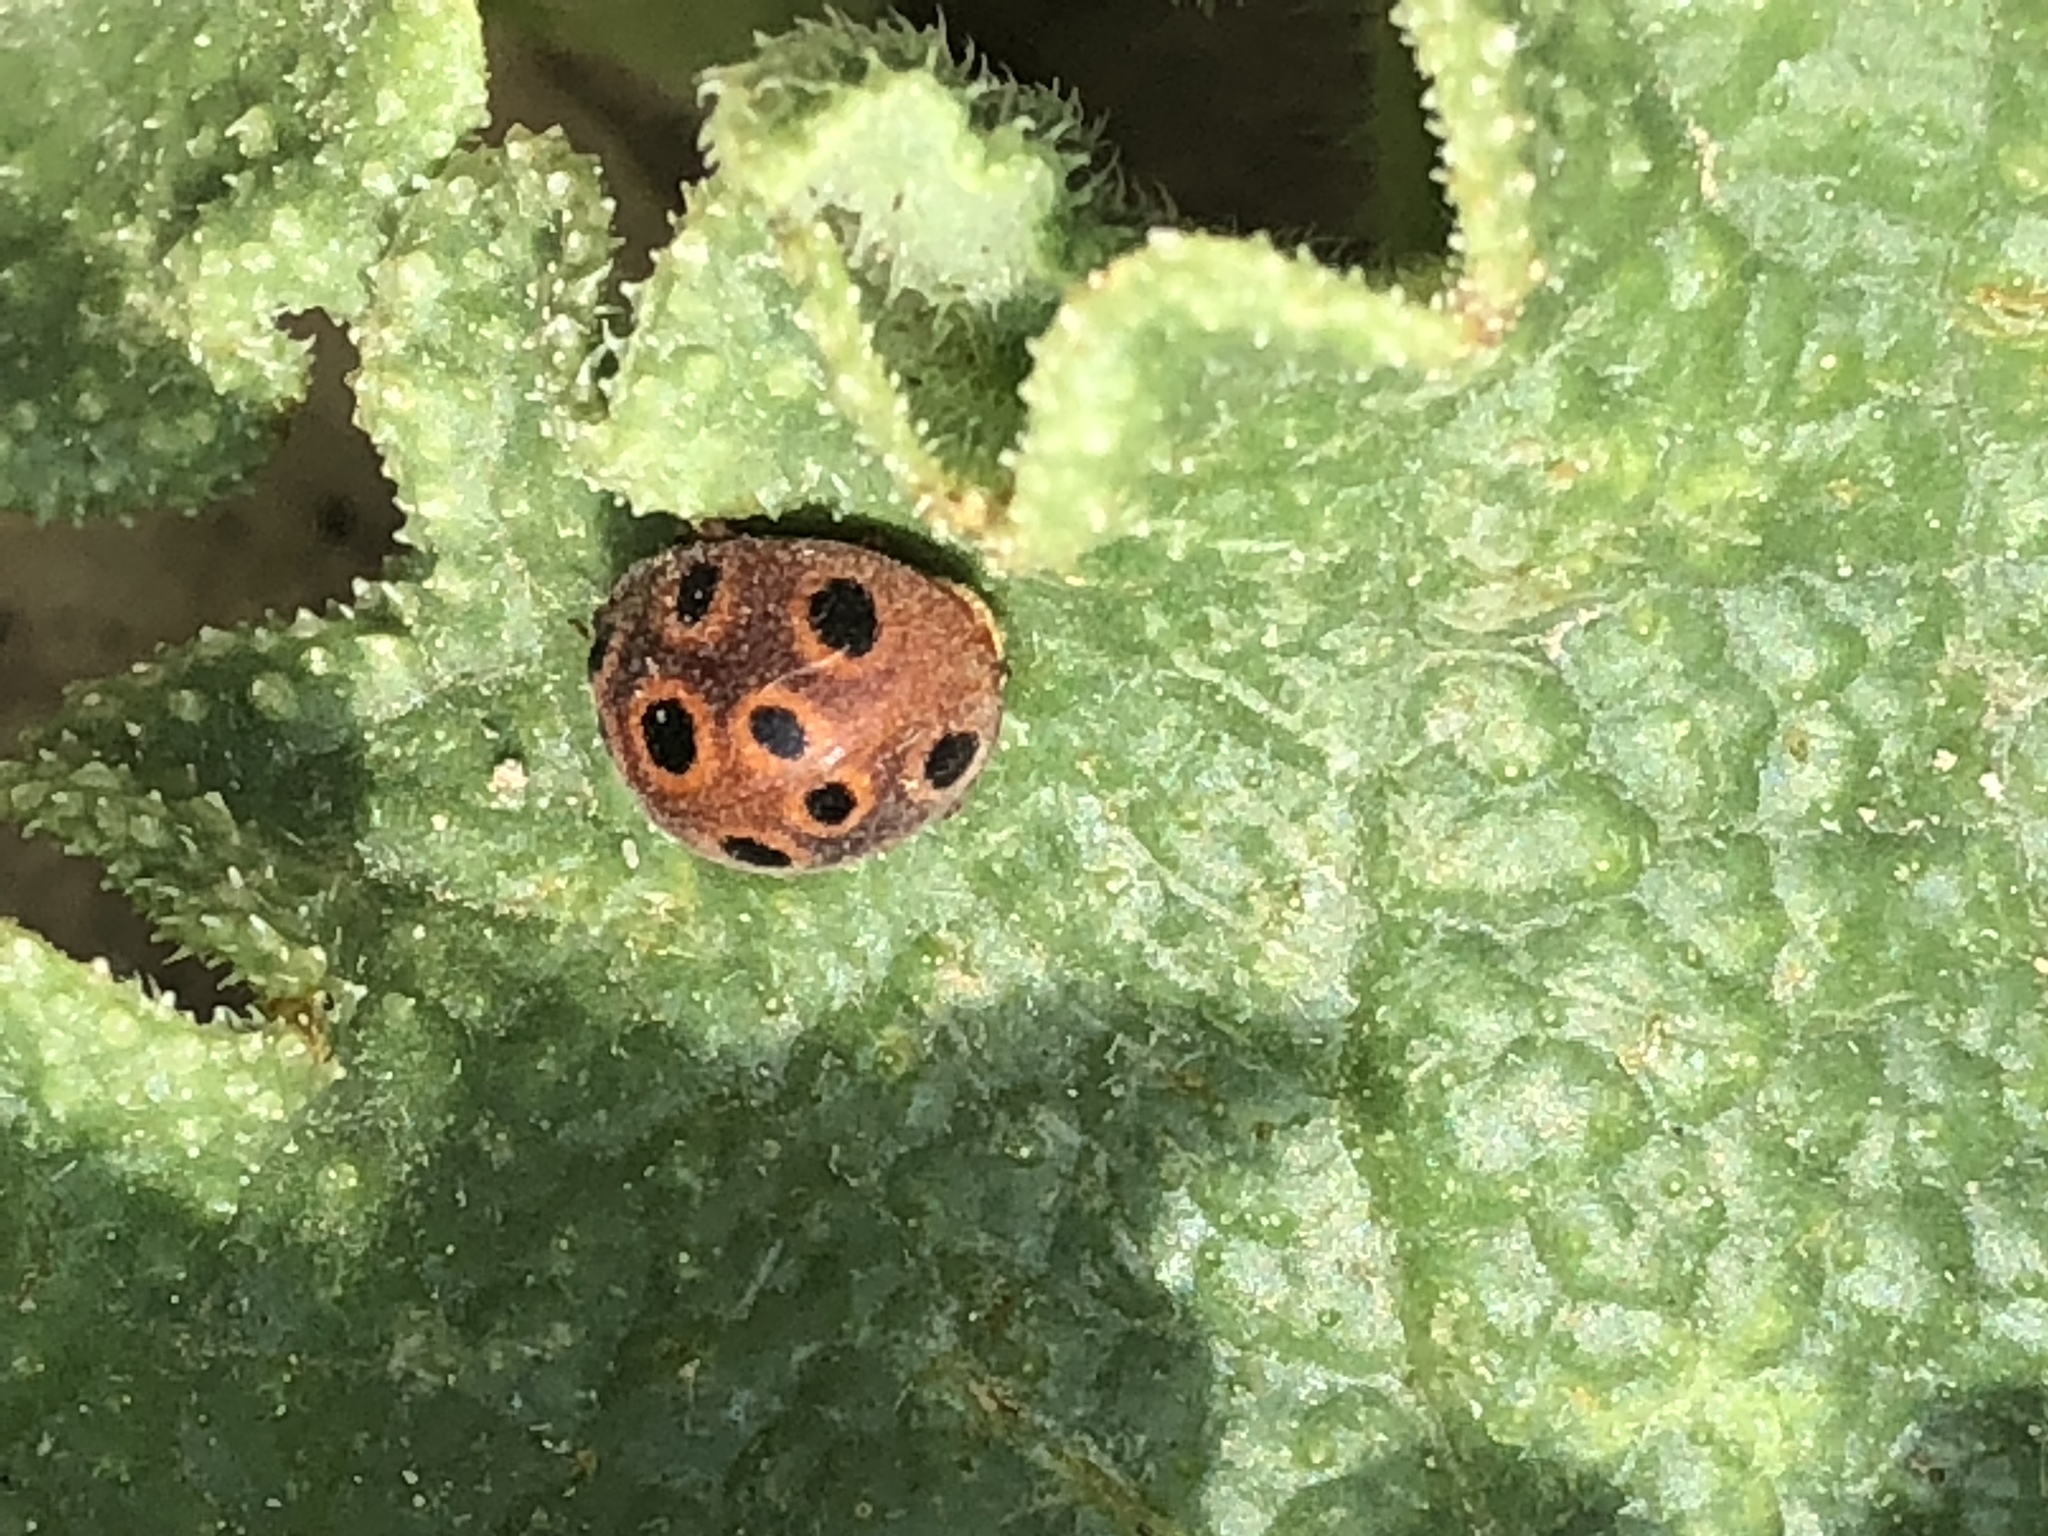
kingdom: Animalia
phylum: Arthropoda
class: Insecta
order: Coleoptera
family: Coccinellidae
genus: Chnootriba
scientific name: Chnootriba elaterii
